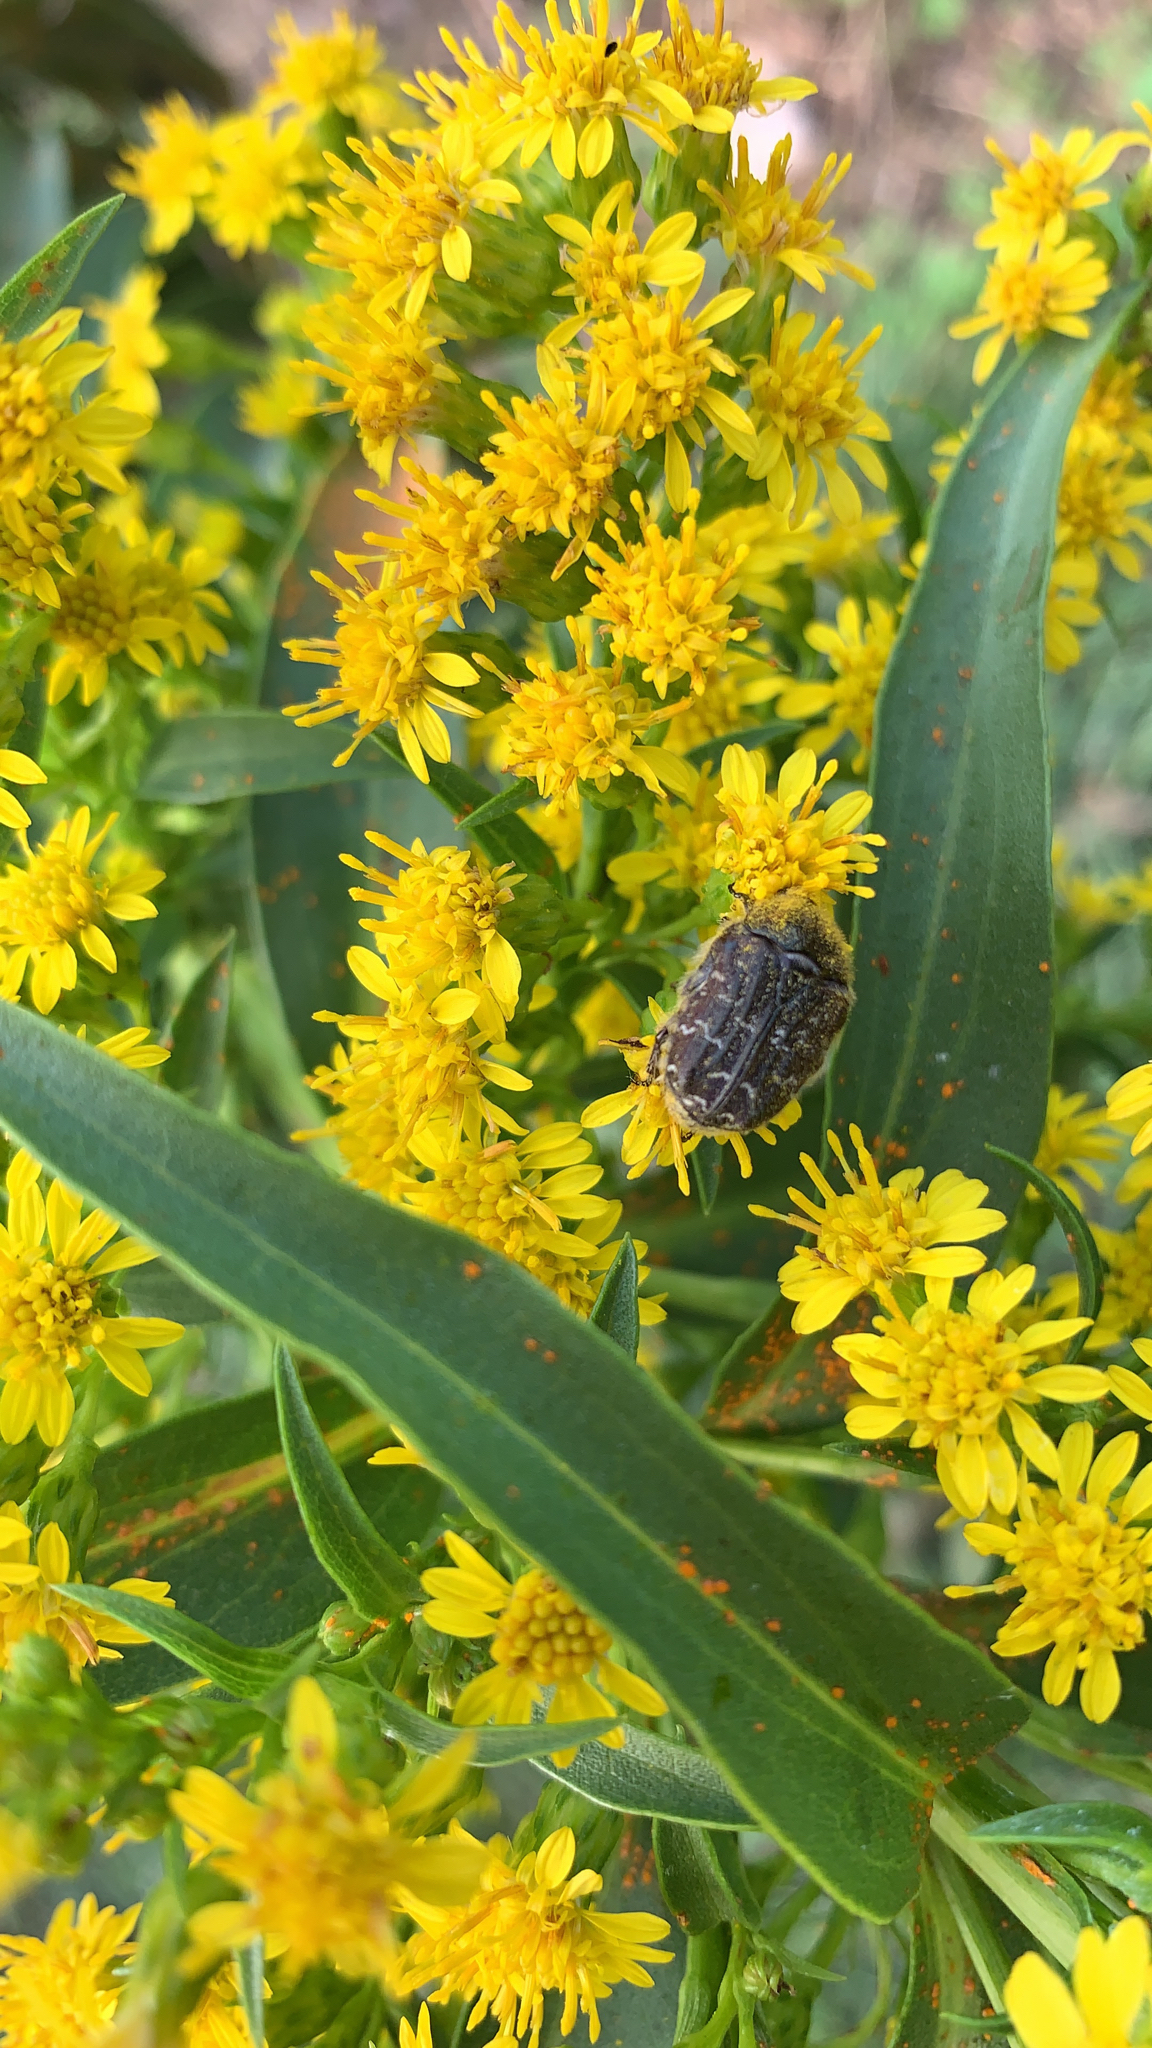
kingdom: Animalia
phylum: Arthropoda
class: Insecta
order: Coleoptera
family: Scarabaeidae
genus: Euphoria
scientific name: Euphoria sepulcralis
